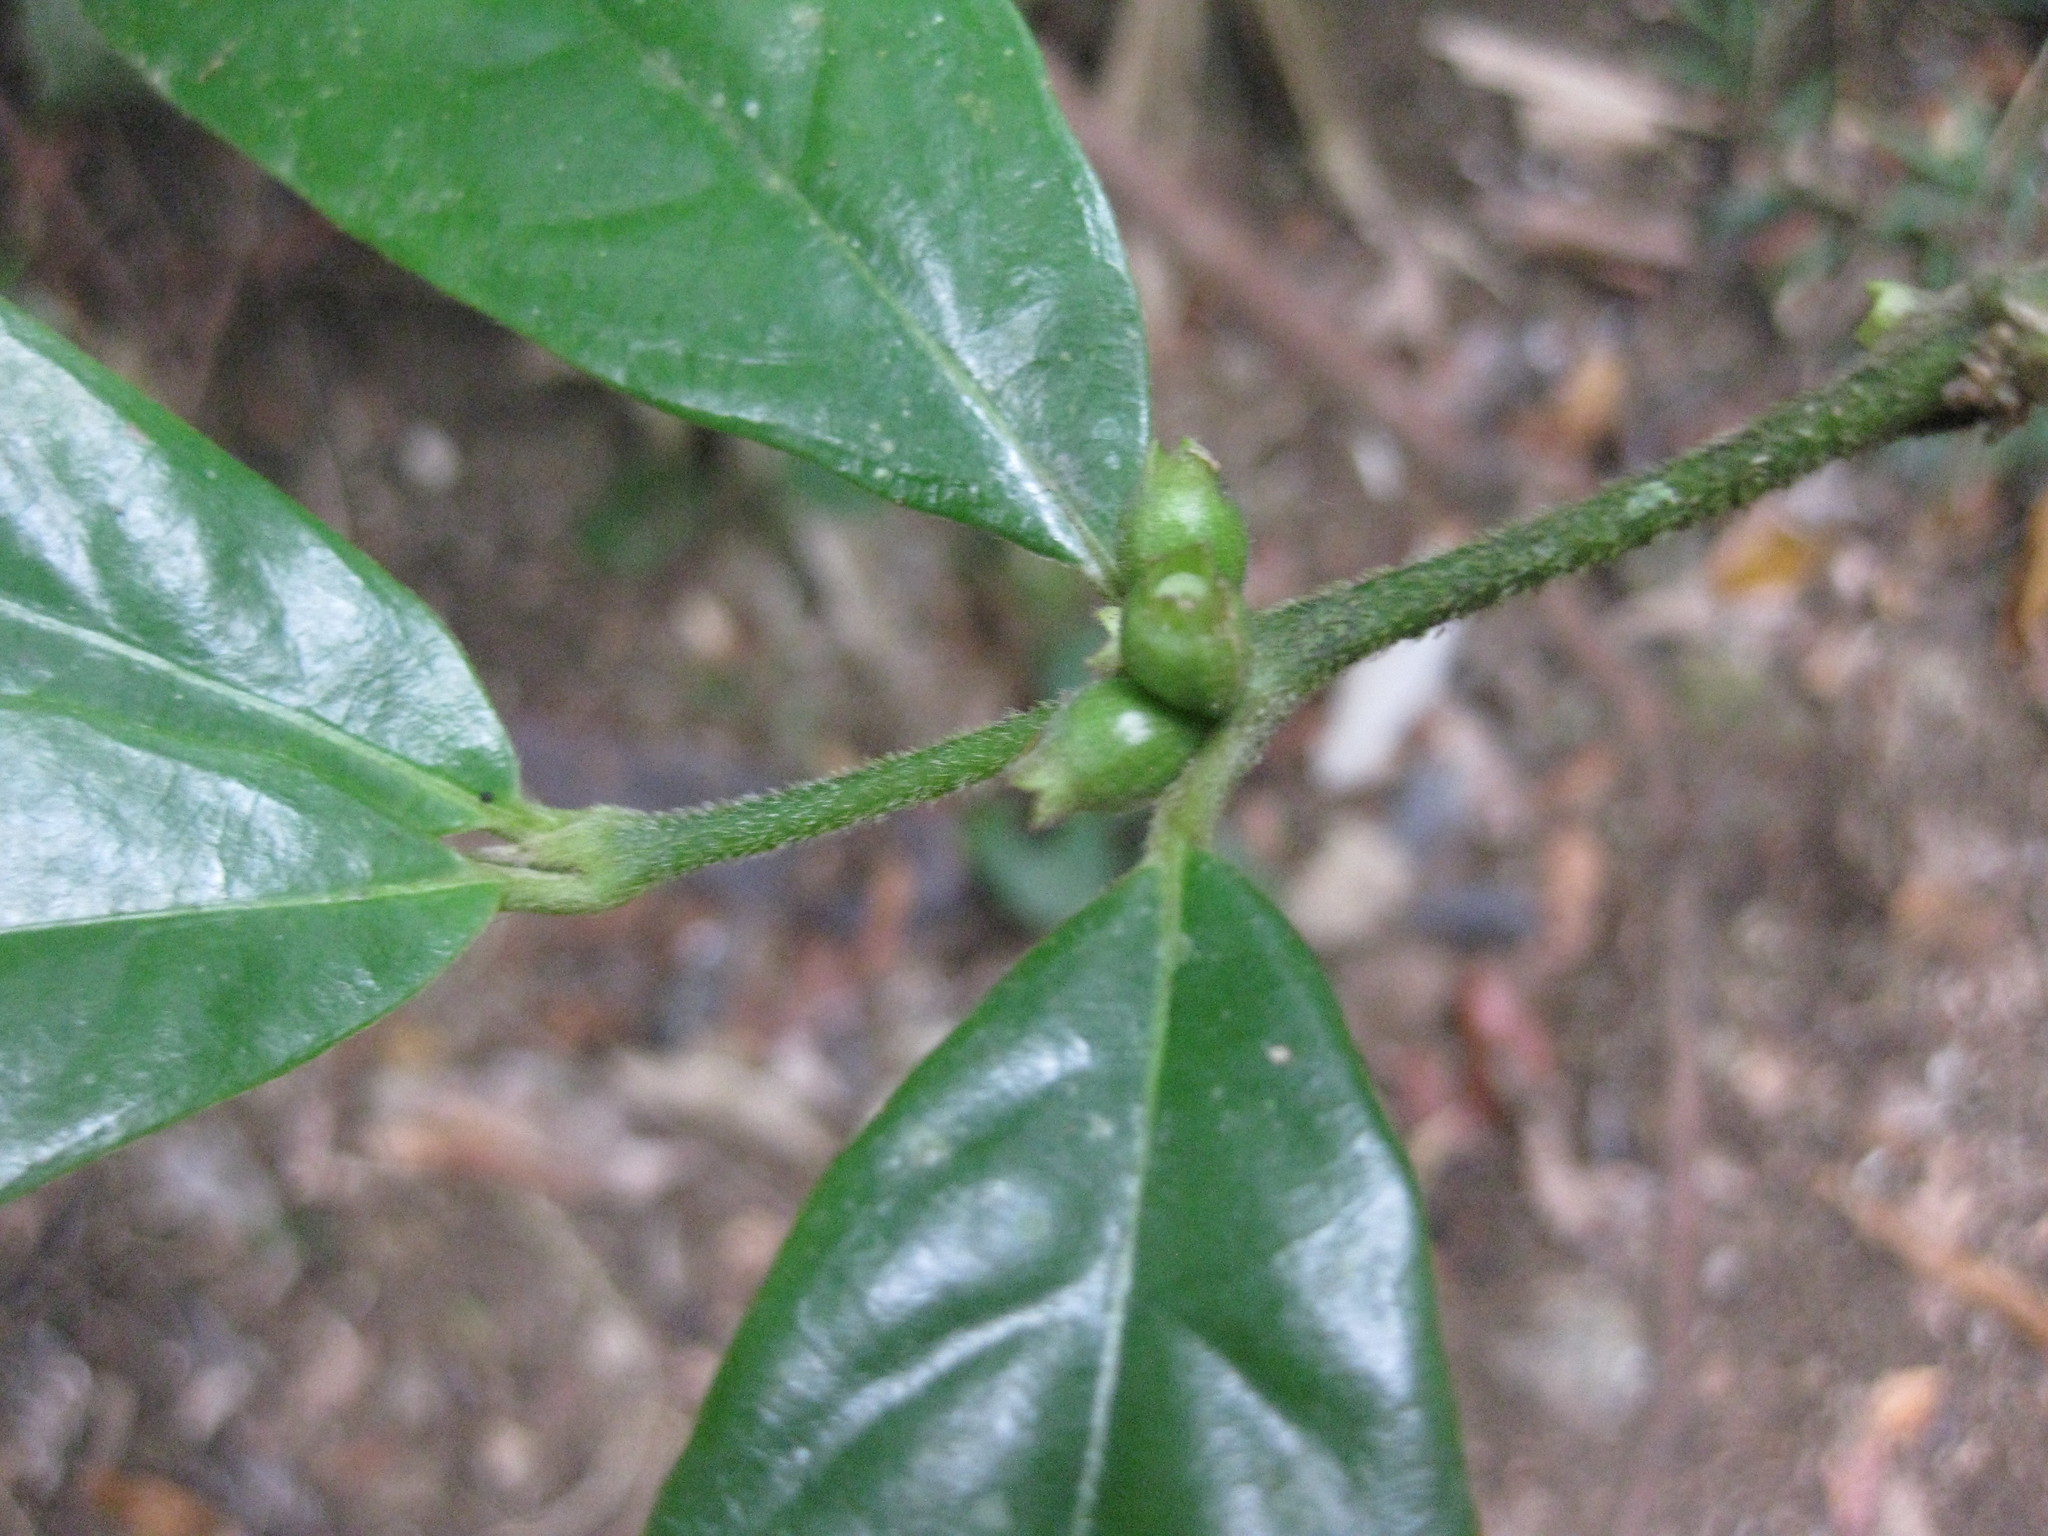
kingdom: Plantae
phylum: Tracheophyta
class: Magnoliopsida
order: Gentianales
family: Rubiaceae
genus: Lasianthus
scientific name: Lasianthus chlorocarpus
